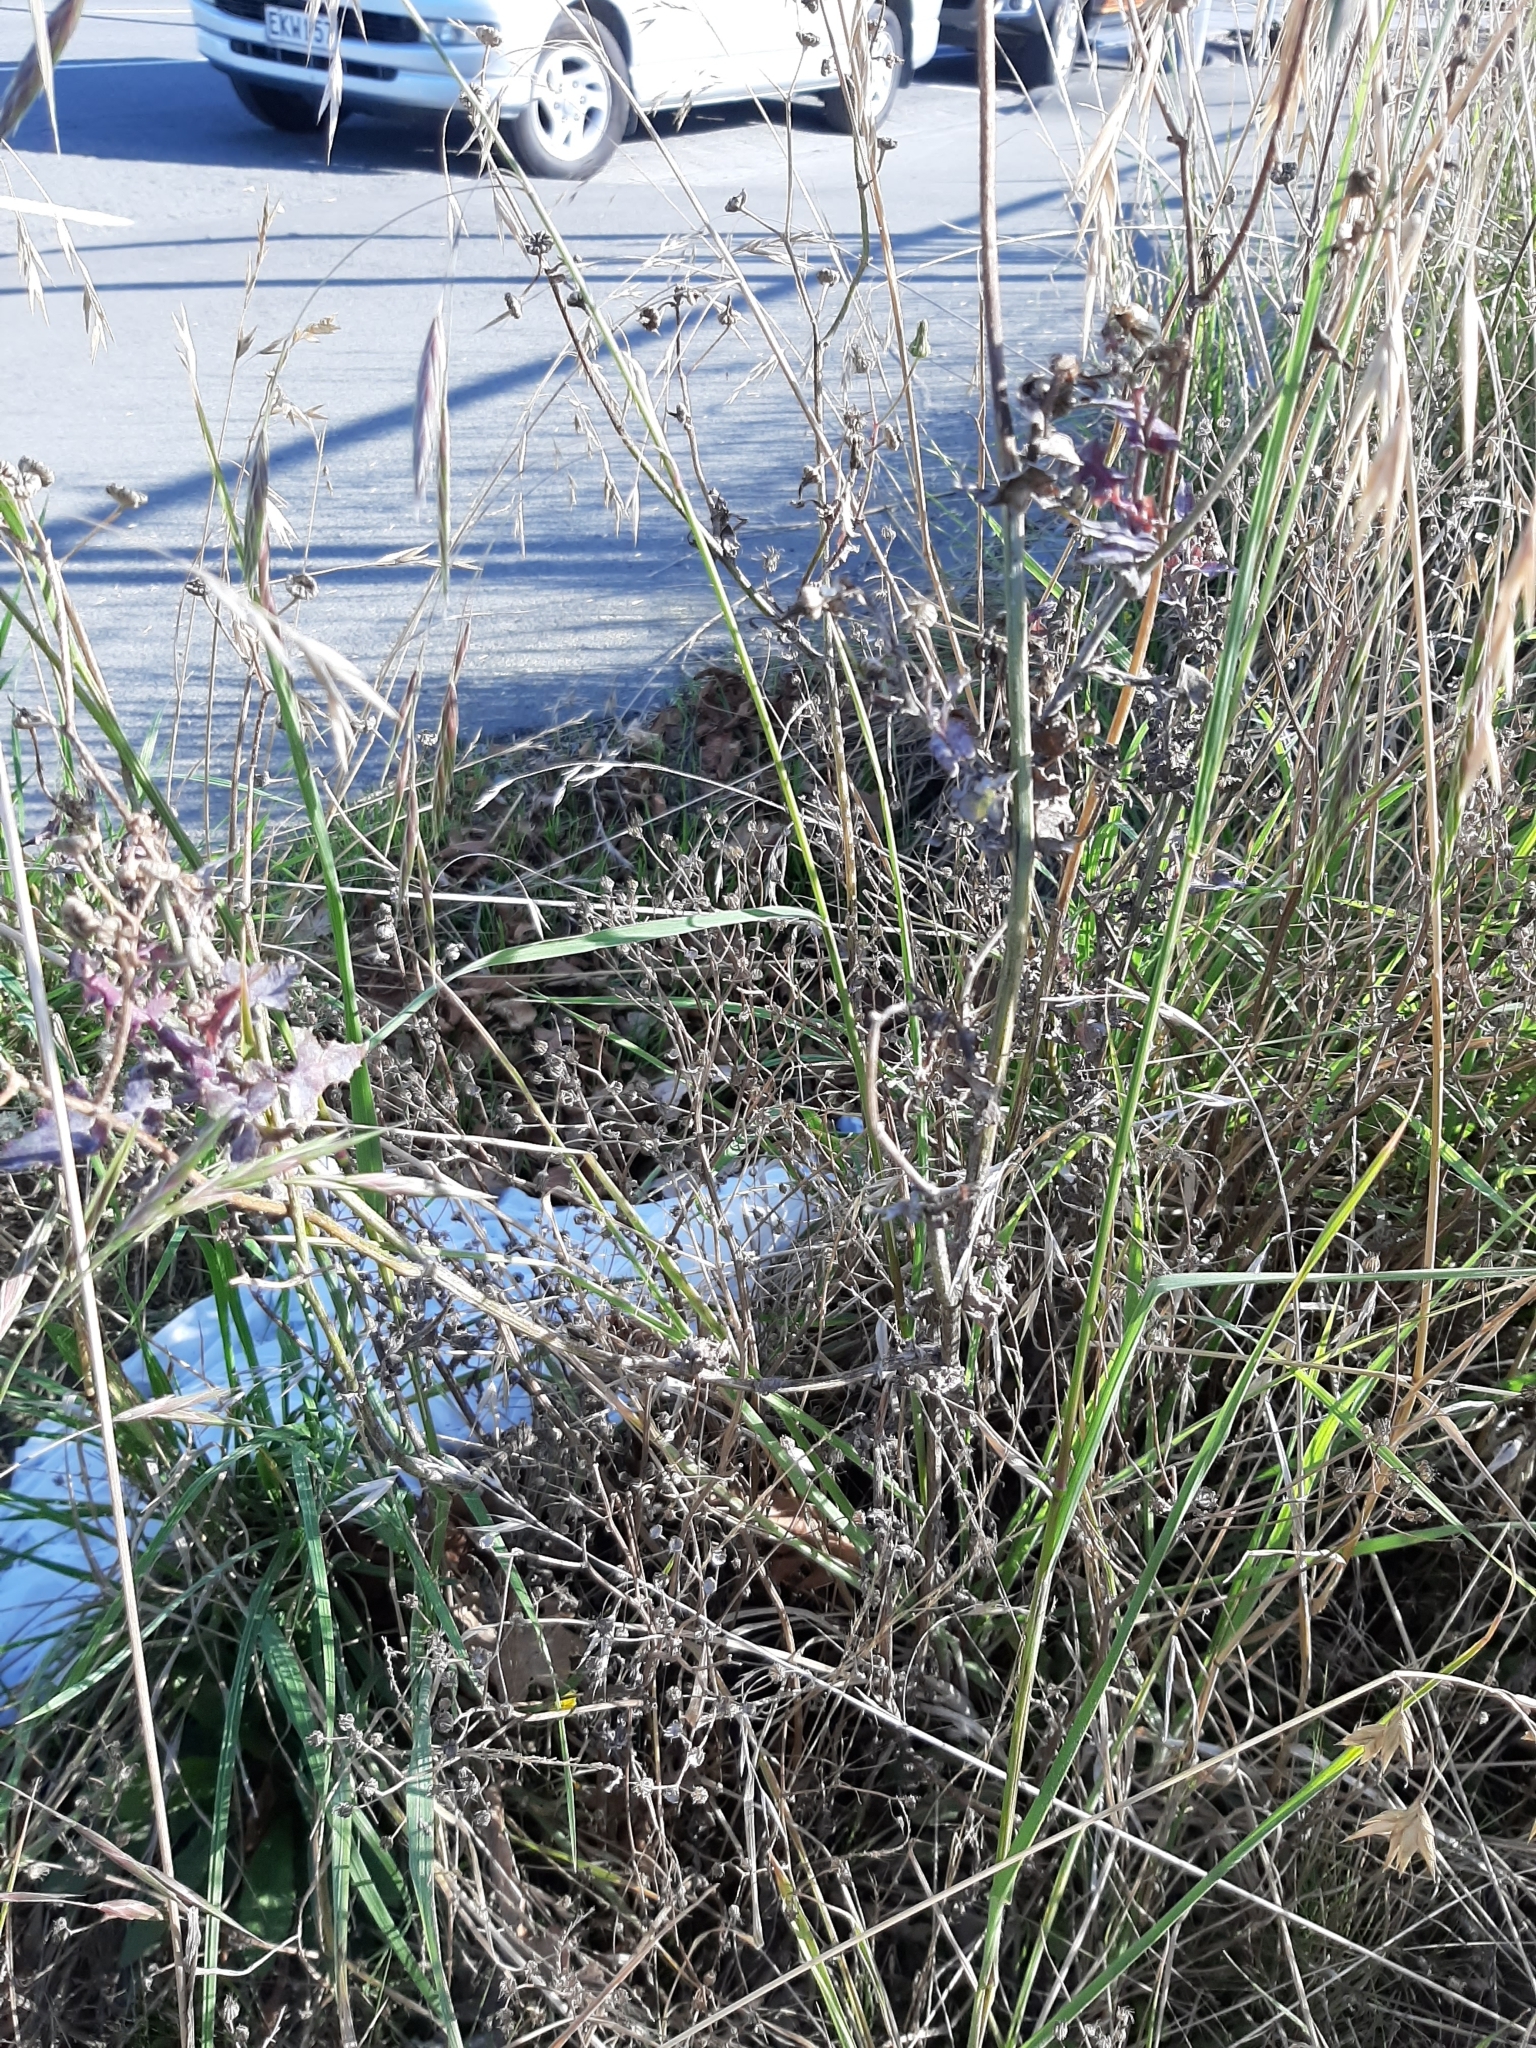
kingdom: Plantae
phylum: Tracheophyta
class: Magnoliopsida
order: Asterales
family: Asteraceae
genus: Sonchus
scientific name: Sonchus oleraceus
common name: Common sowthistle
